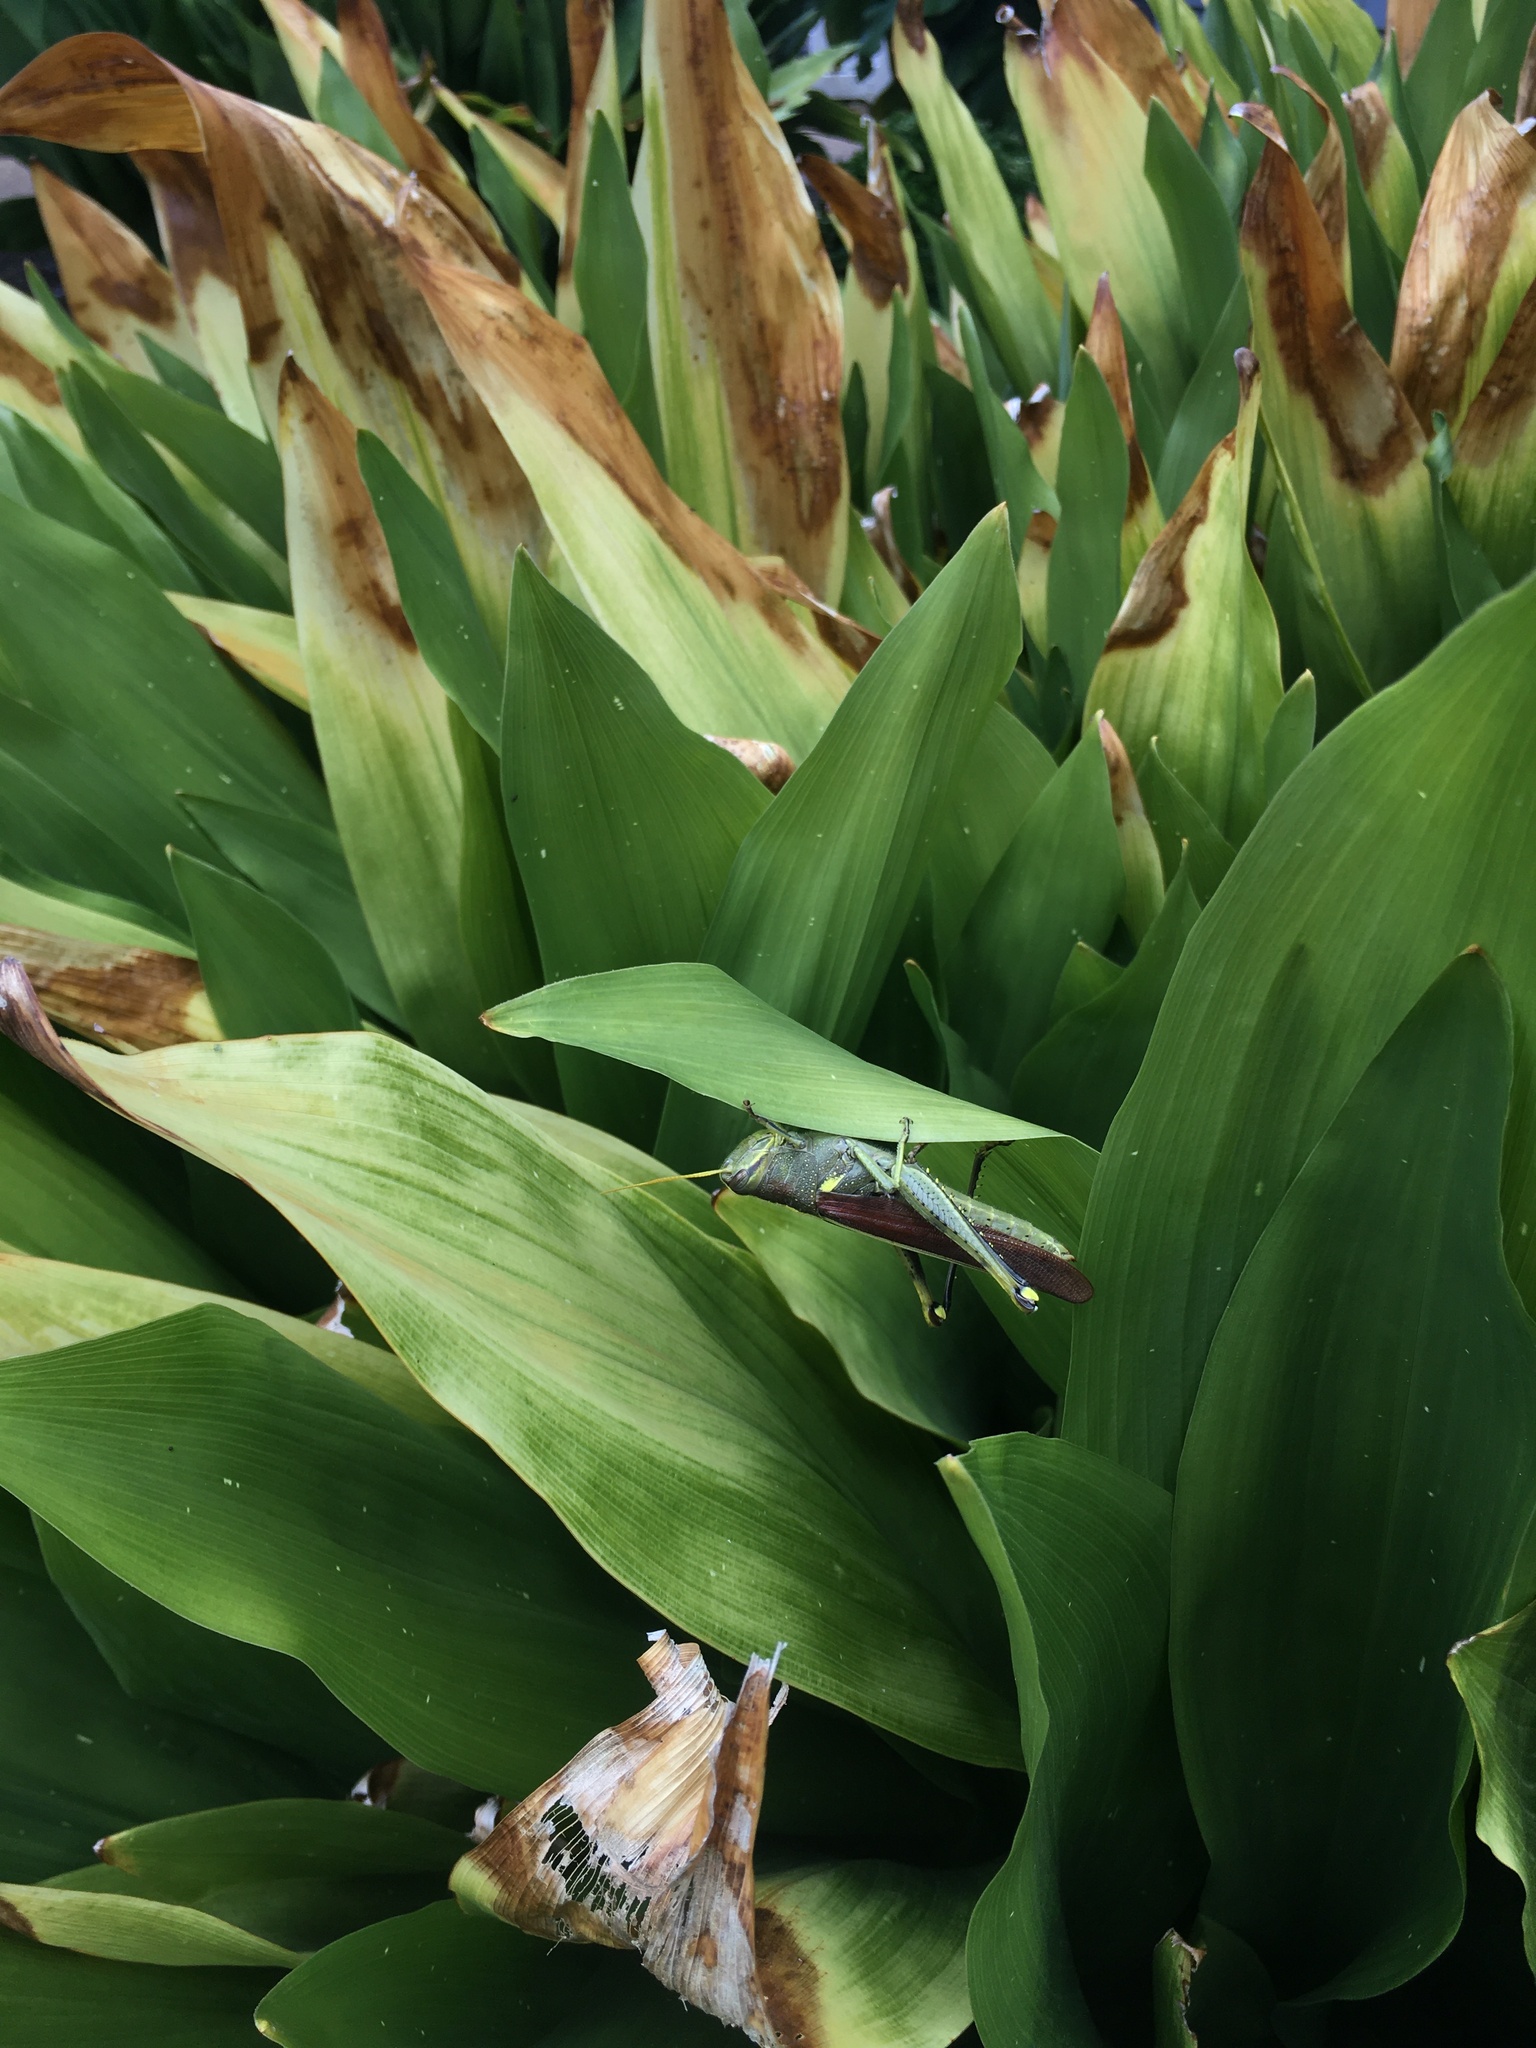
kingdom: Animalia
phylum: Arthropoda
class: Insecta
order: Orthoptera
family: Acrididae
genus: Schistocerca
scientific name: Schistocerca obscura
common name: Obscure bird grasshopper
